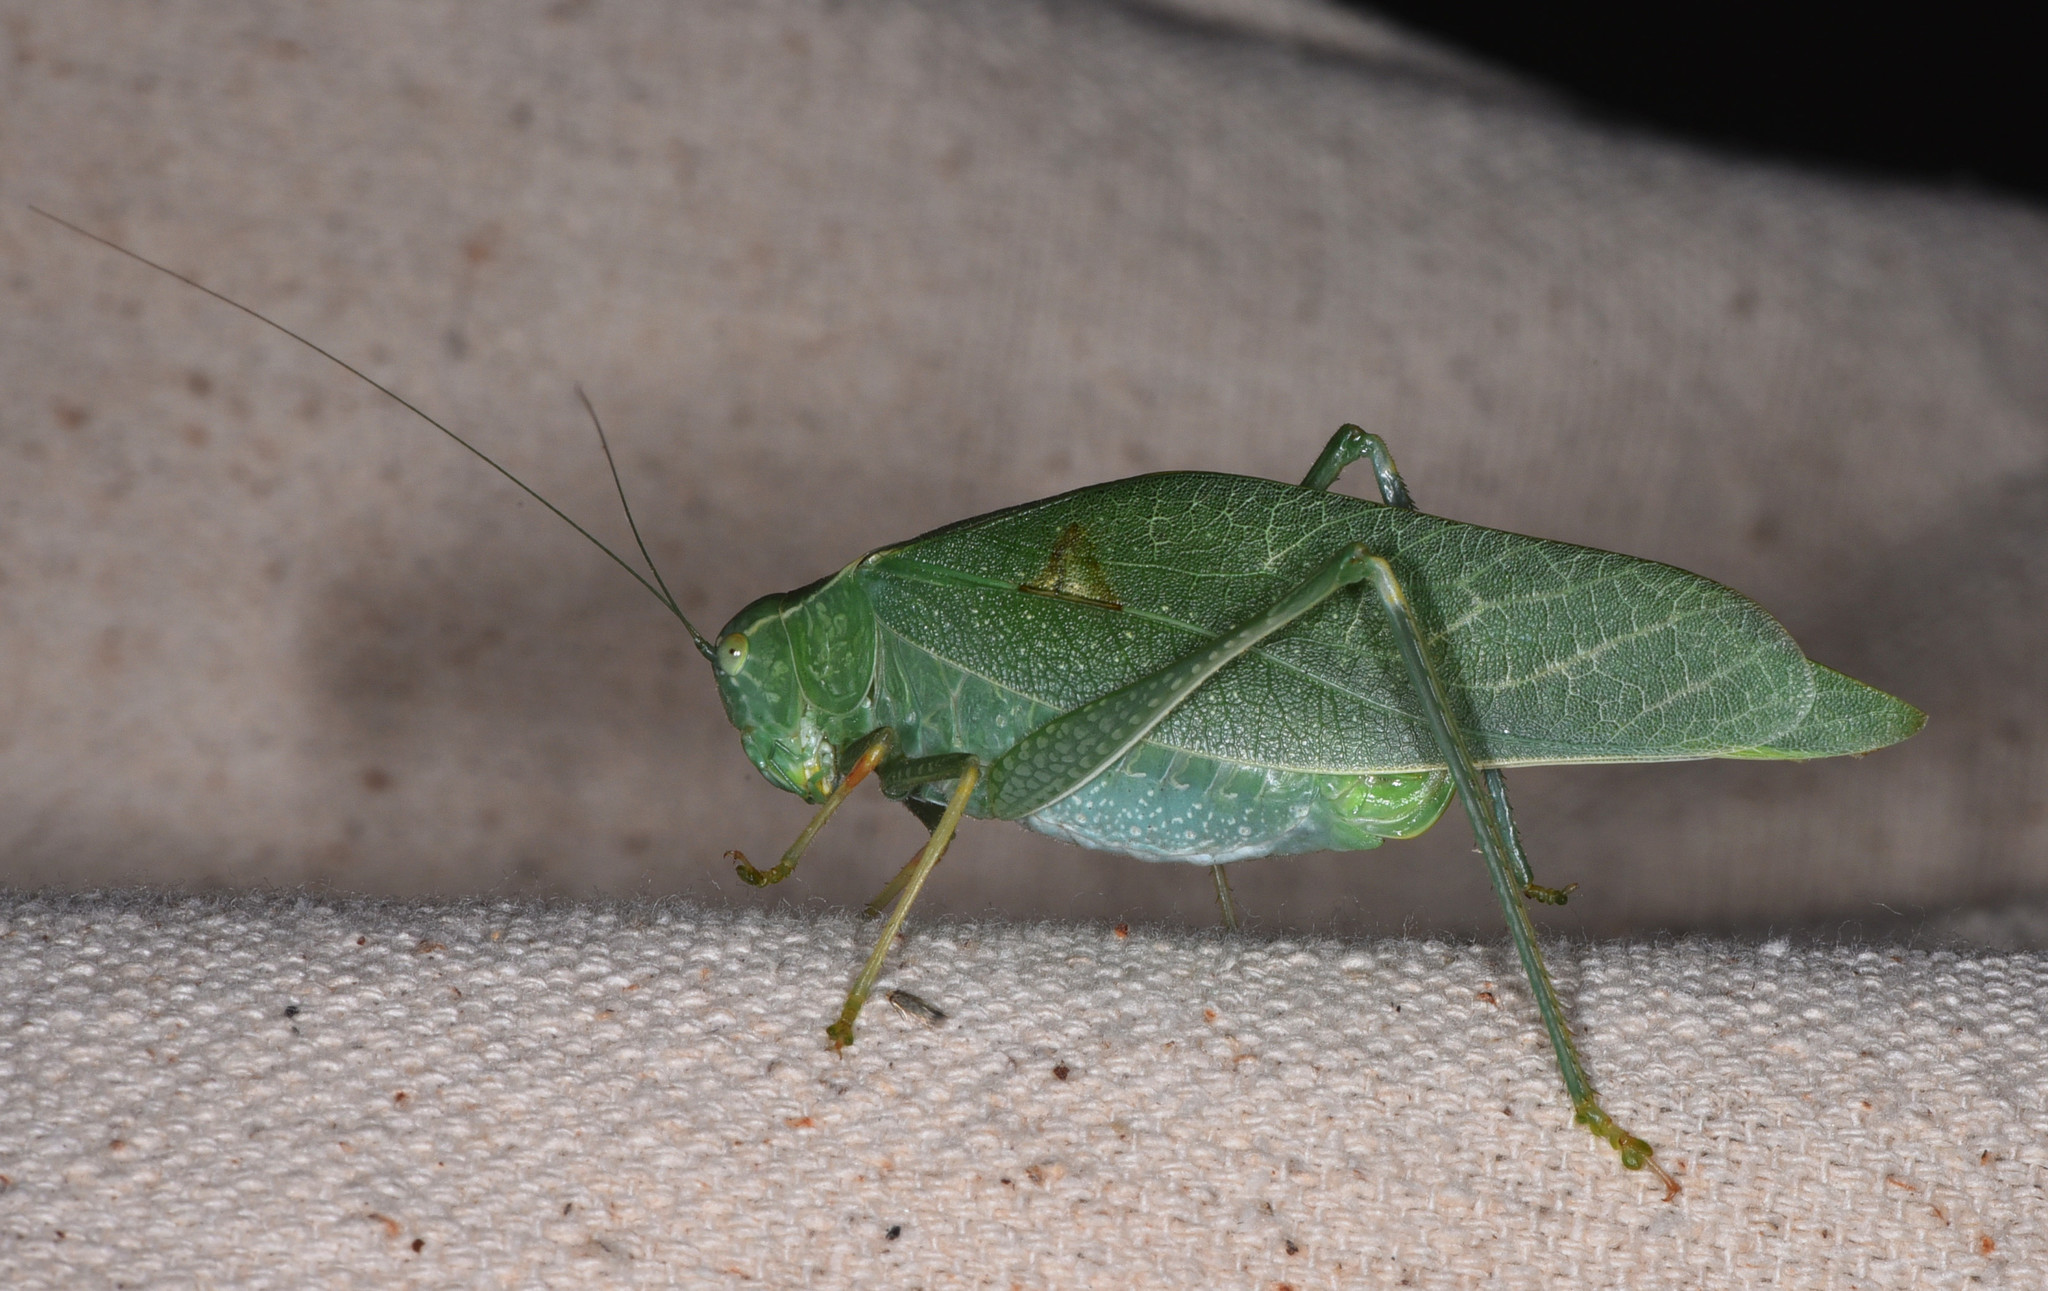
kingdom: Animalia
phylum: Arthropoda
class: Insecta
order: Orthoptera
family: Tettigoniidae
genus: Microcentrum
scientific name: Microcentrum californicum
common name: California angle-wing
